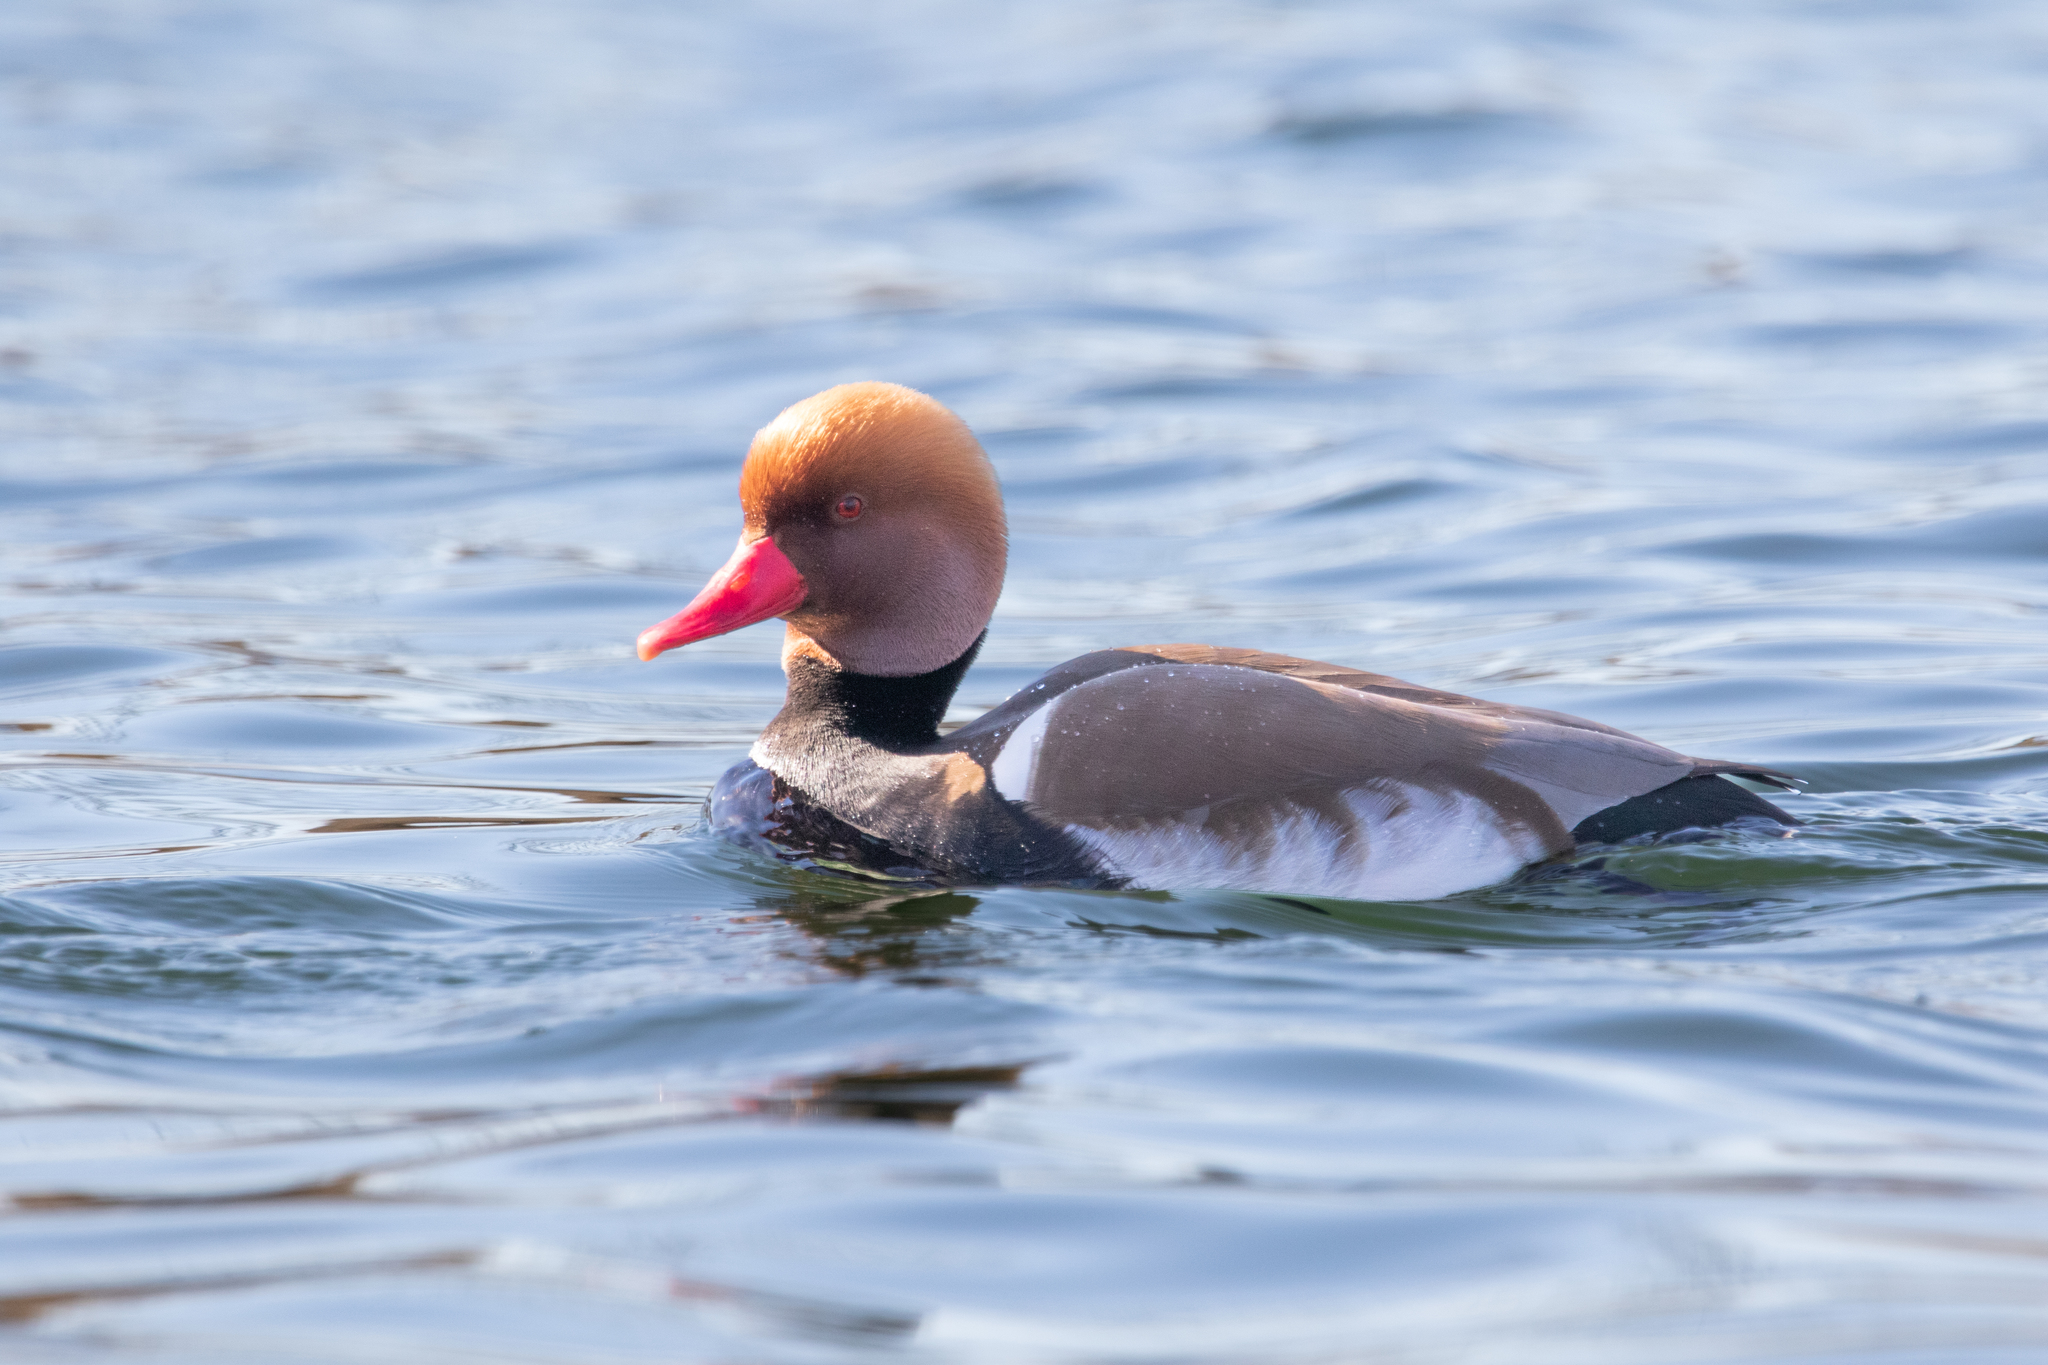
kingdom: Animalia
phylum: Chordata
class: Aves
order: Anseriformes
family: Anatidae
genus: Netta
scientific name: Netta rufina
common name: Red-crested pochard
